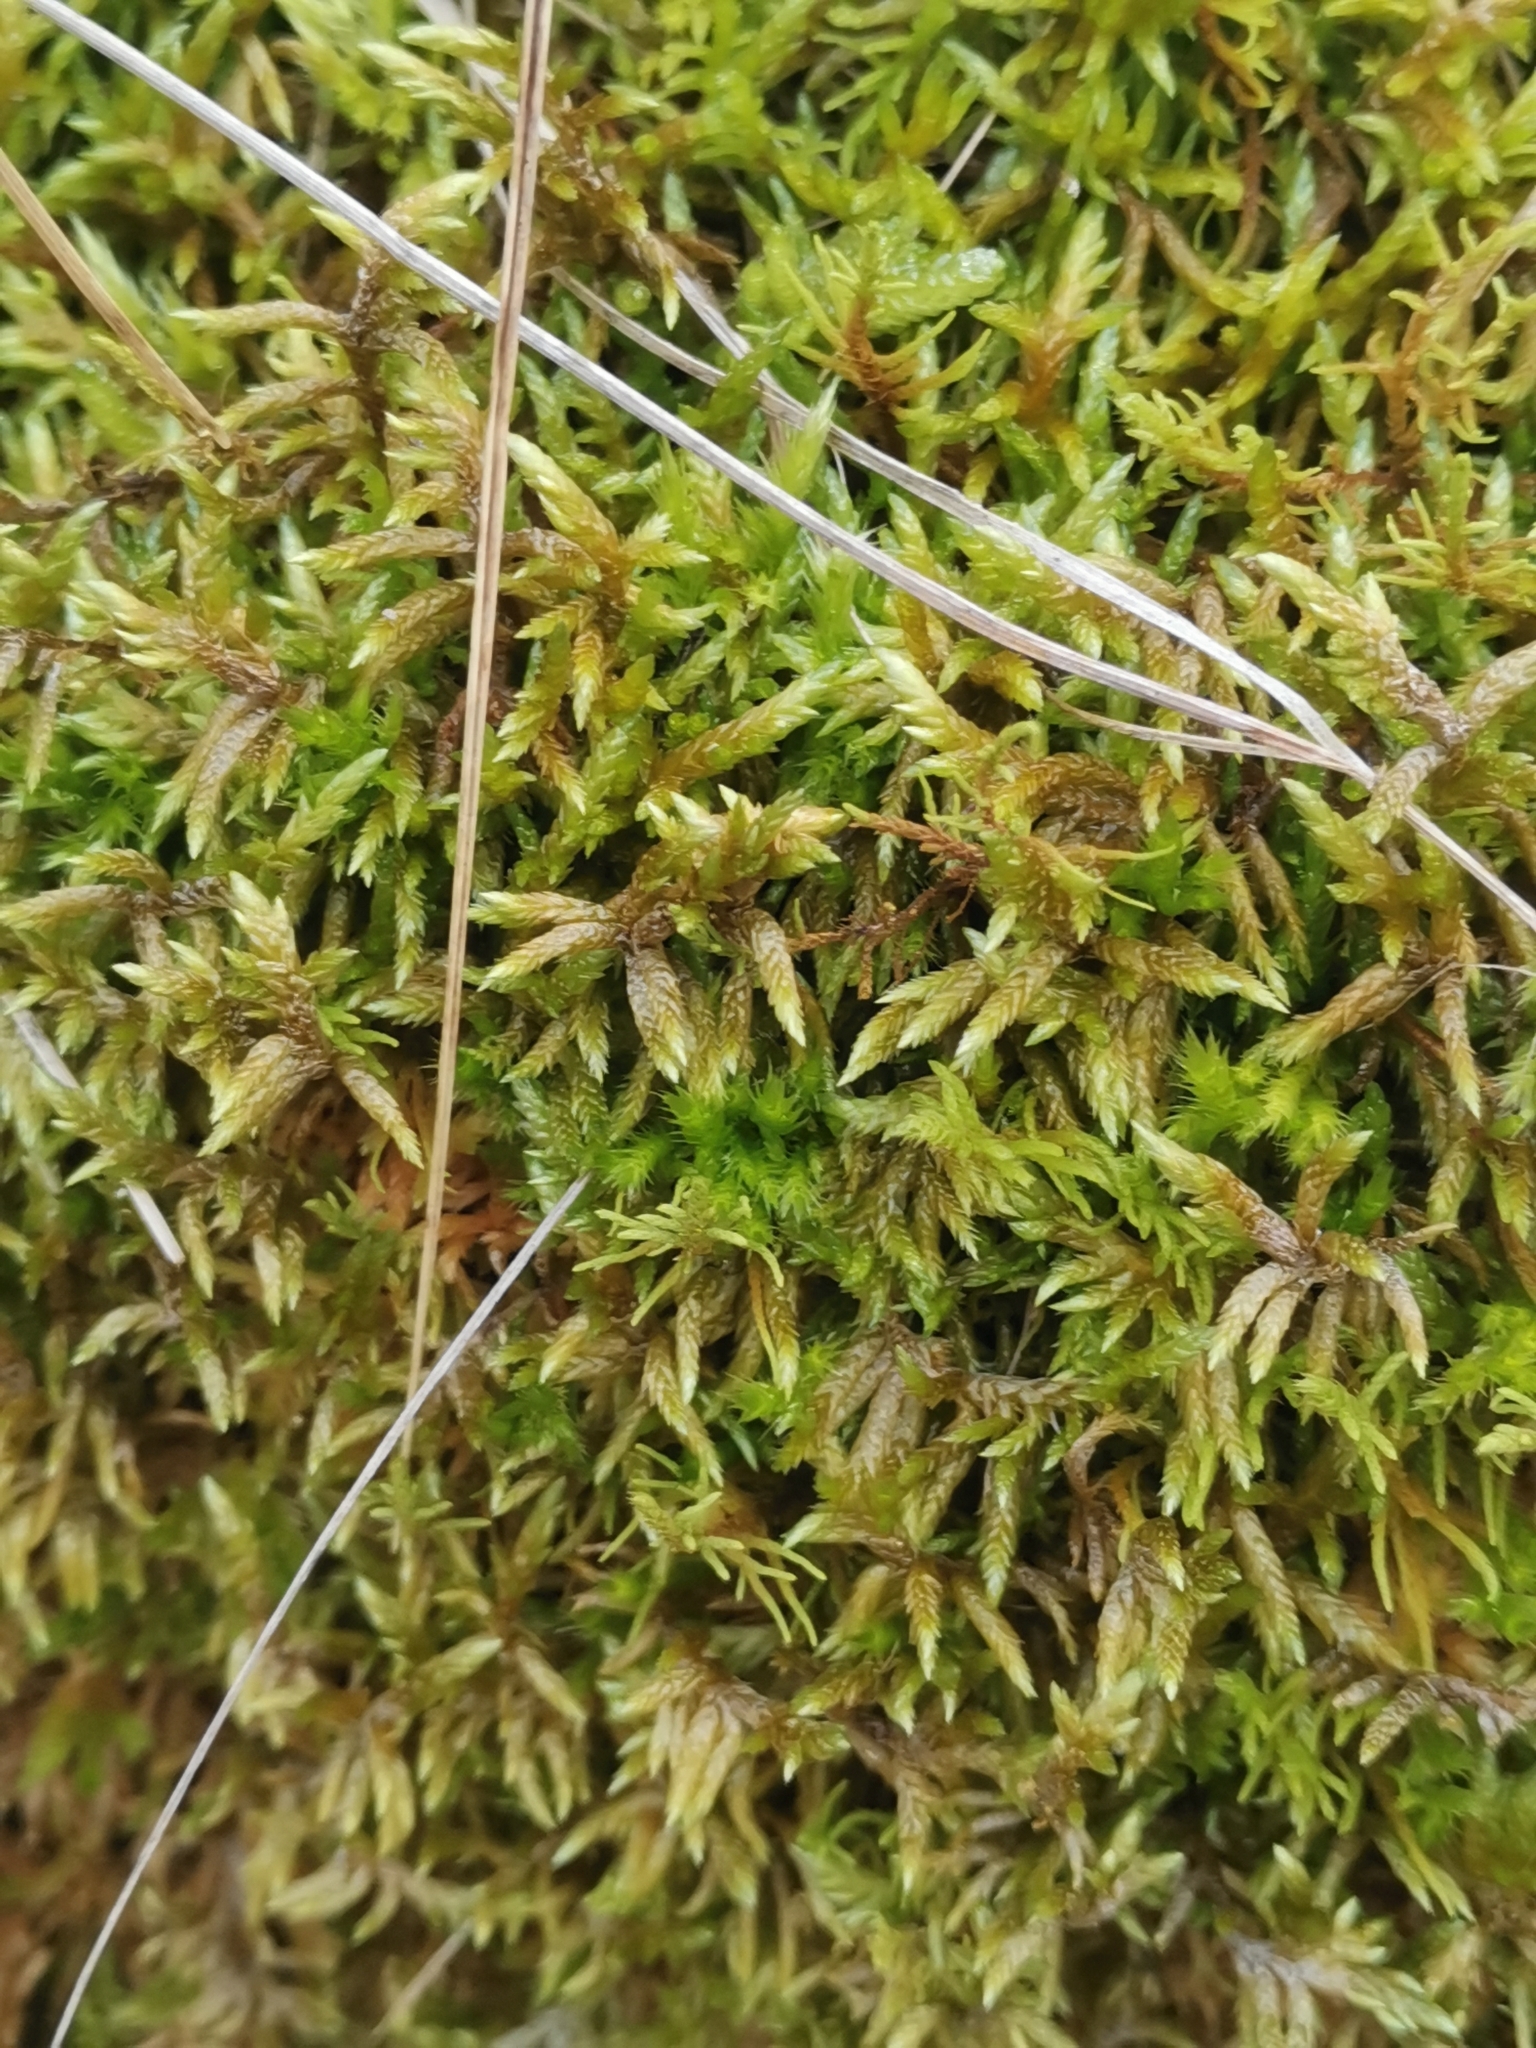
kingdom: Plantae
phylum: Bryophyta
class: Bryopsida
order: Hypnales
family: Entodontaceae
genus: Entodon
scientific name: Entodon concinnus
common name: Montagne's cylinder-moss
